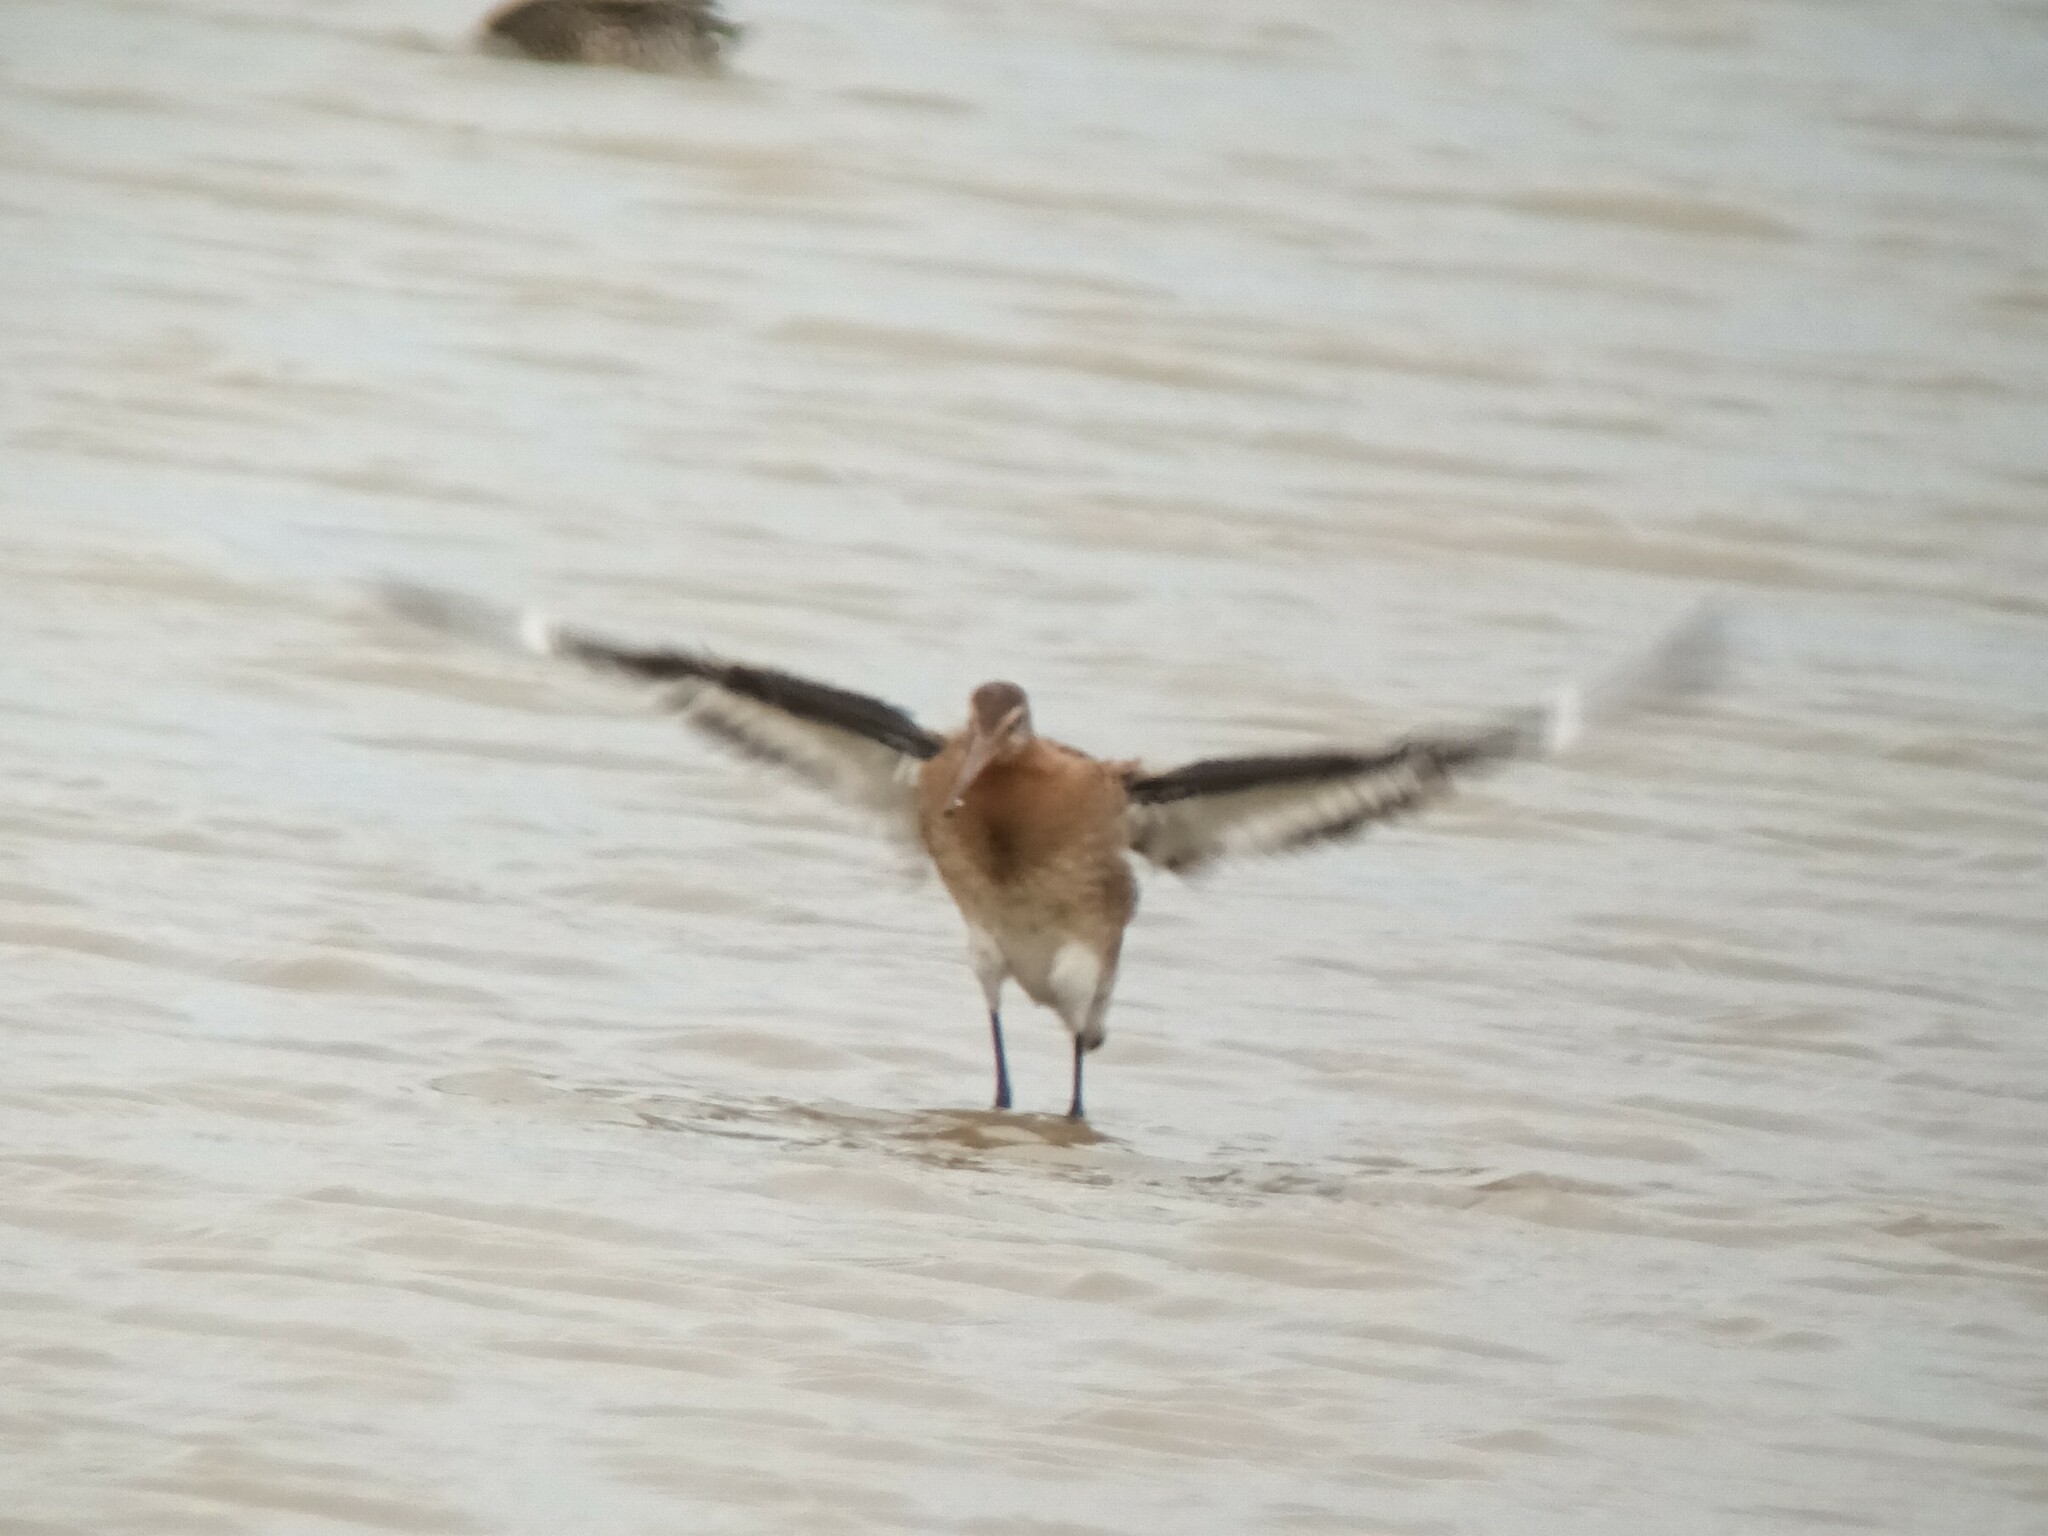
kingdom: Animalia
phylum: Chordata
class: Aves
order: Charadriiformes
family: Scolopacidae
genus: Limosa
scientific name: Limosa limosa
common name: Black-tailed godwit
